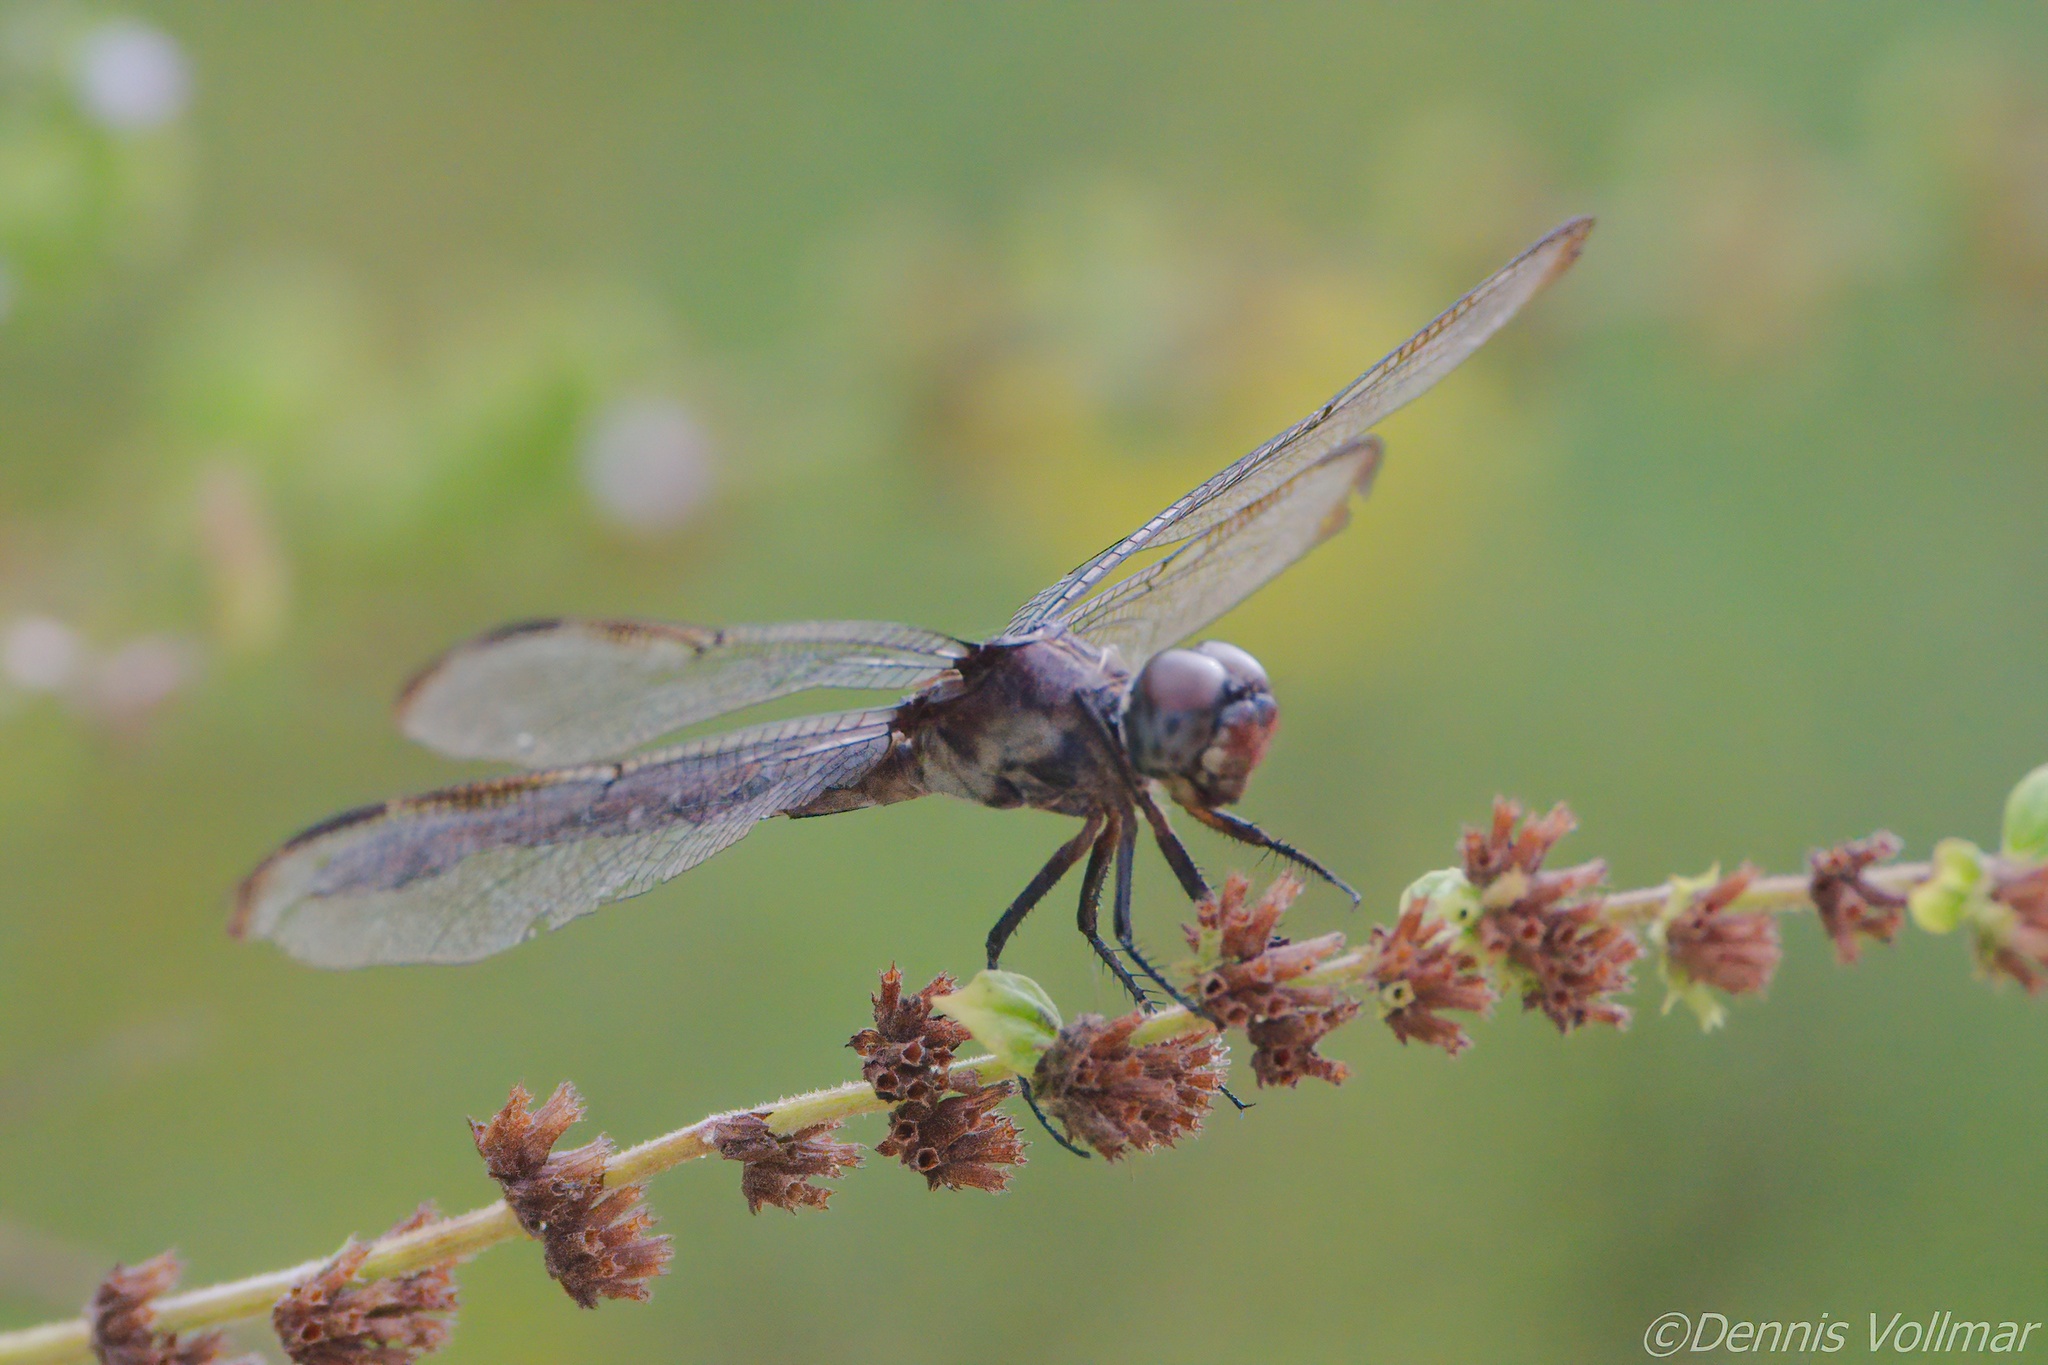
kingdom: Animalia
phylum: Arthropoda
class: Insecta
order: Odonata
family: Libellulidae
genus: Libellula
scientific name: Libellula incesta
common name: Slaty skimmer
